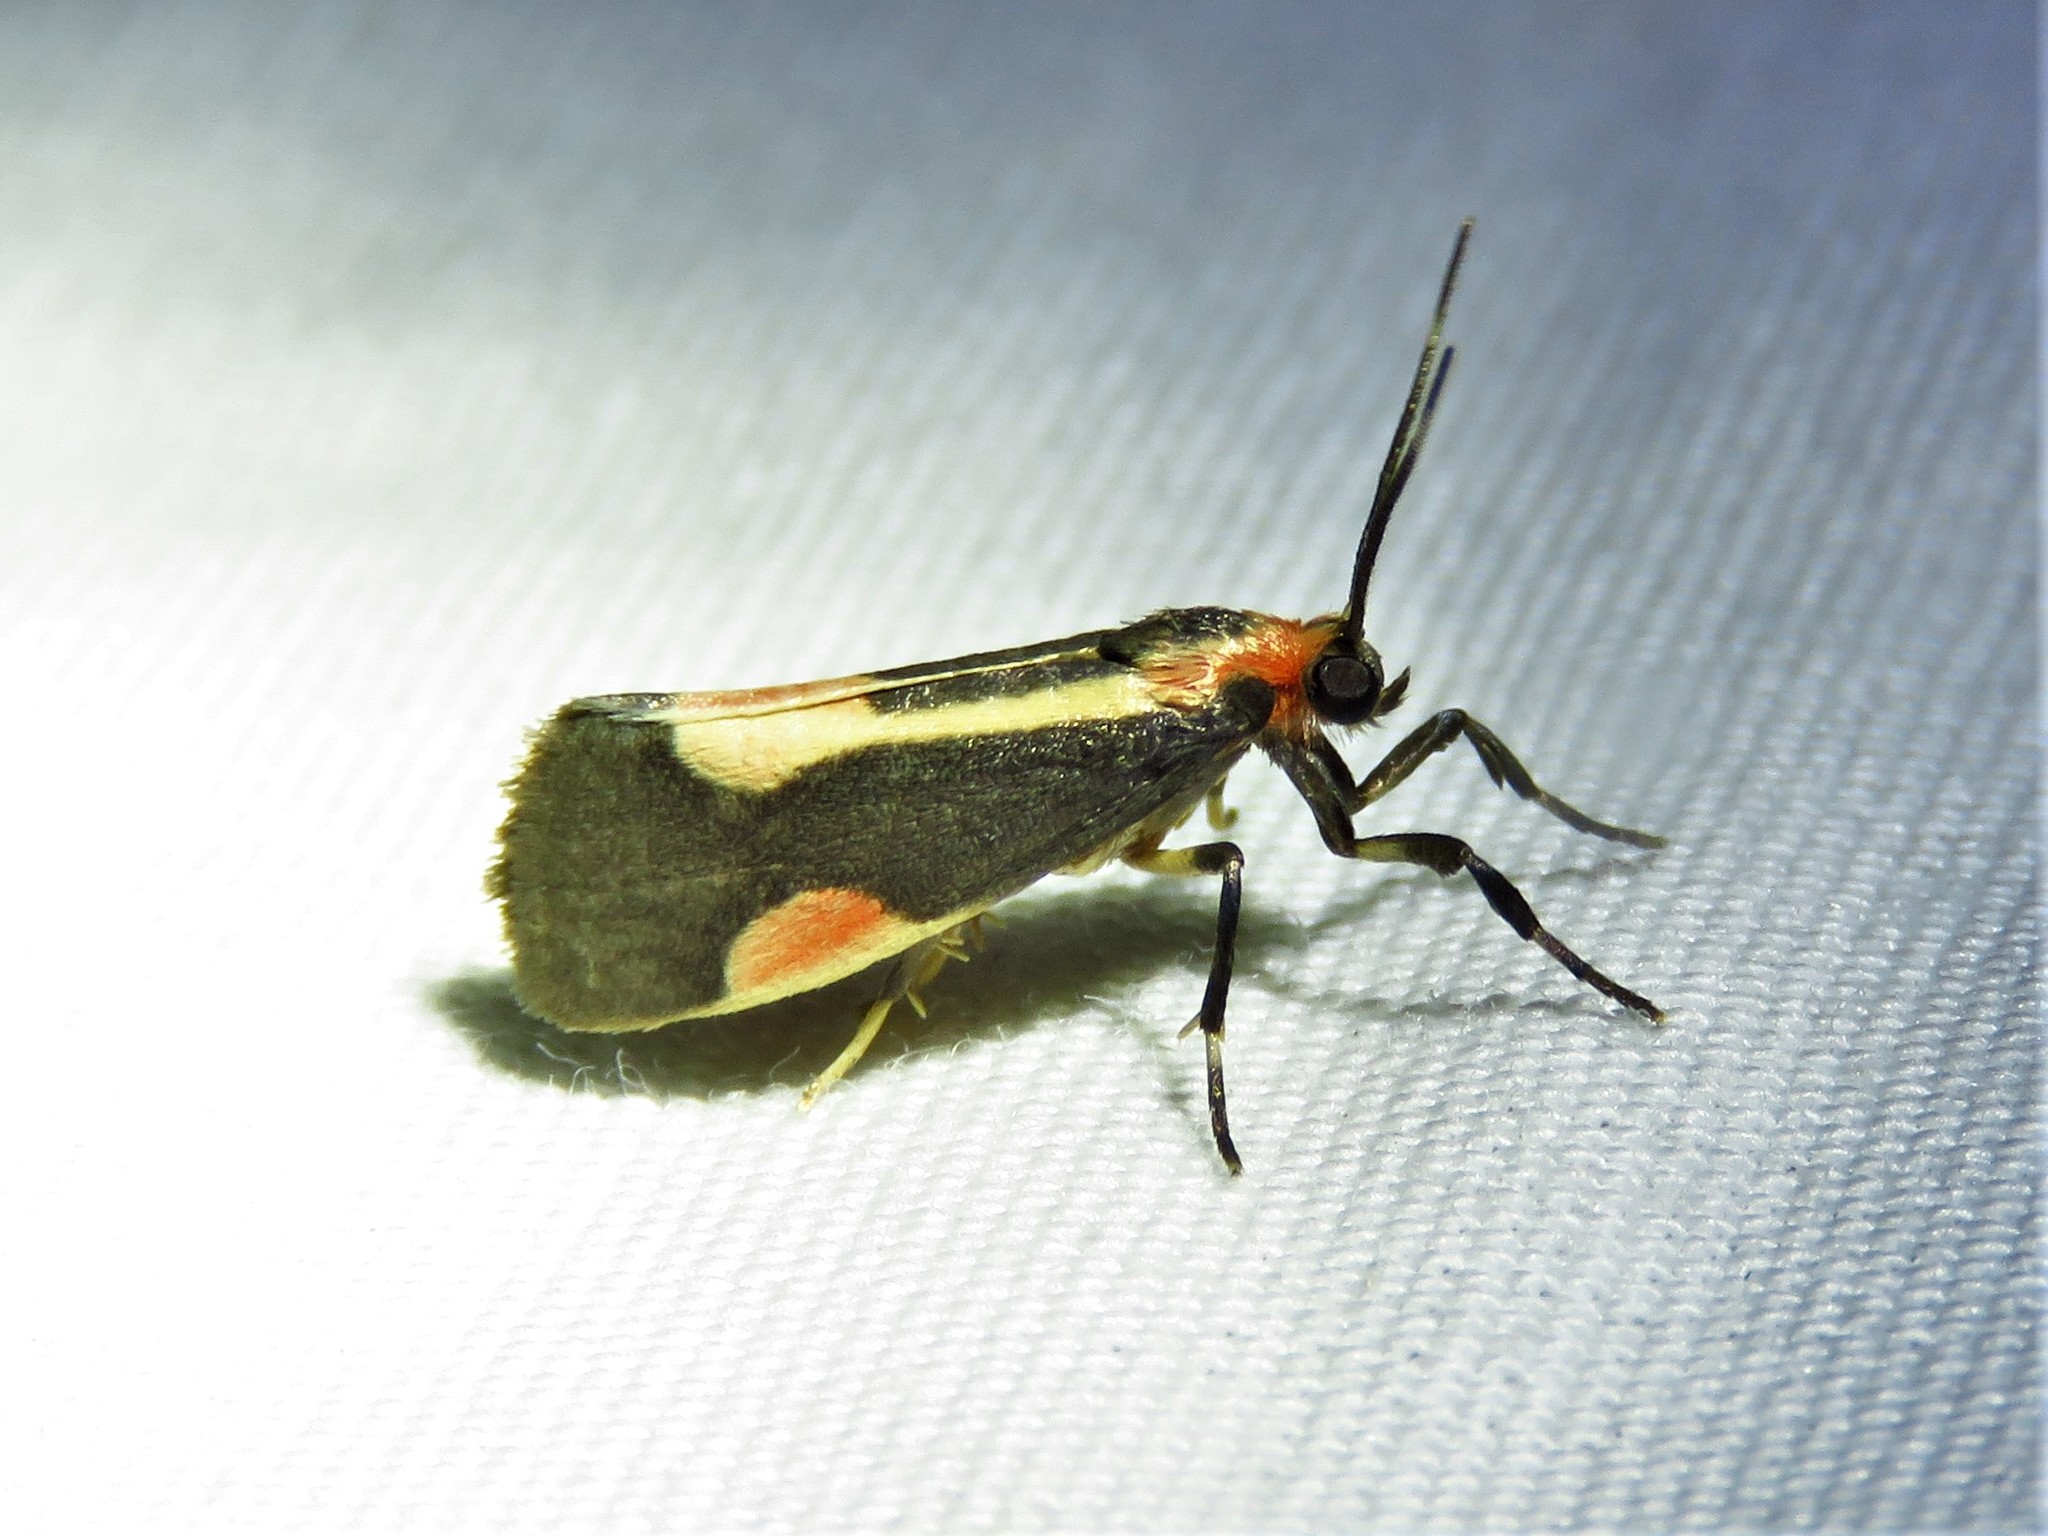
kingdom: Animalia
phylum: Arthropoda
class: Insecta
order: Lepidoptera
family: Erebidae
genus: Cisthene
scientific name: Cisthene packardii
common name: Packard's lichen moth
